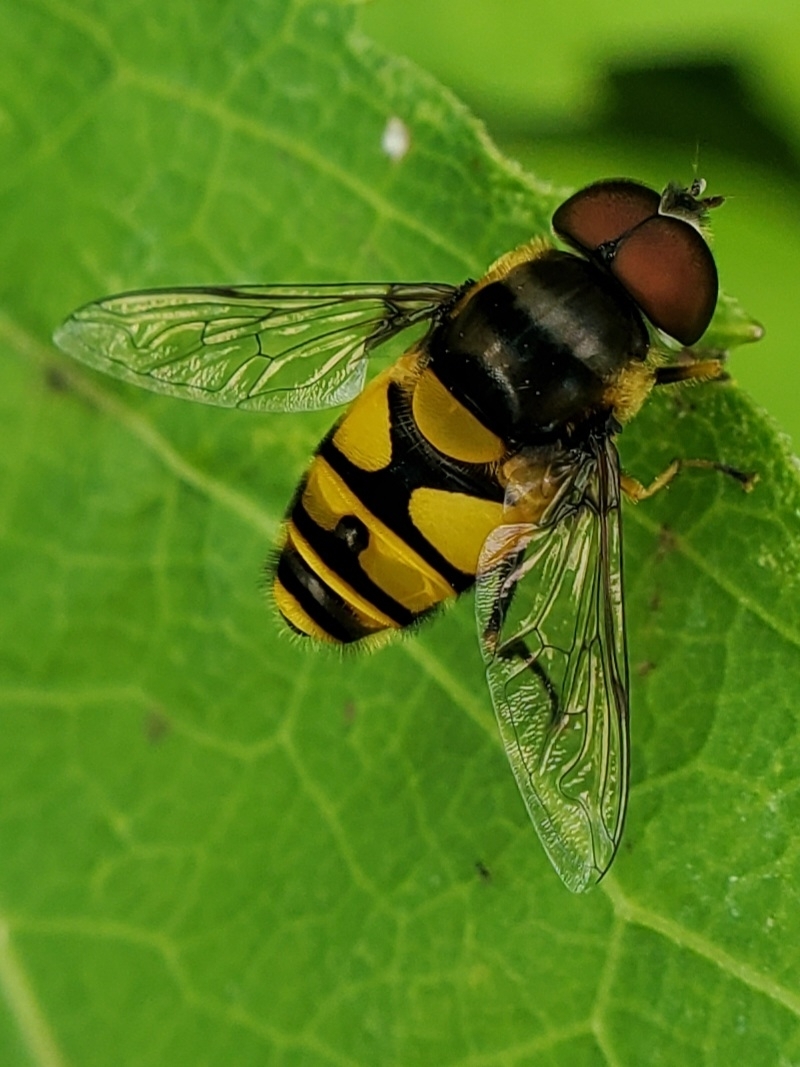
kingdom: Animalia
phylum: Arthropoda
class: Insecta
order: Diptera
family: Syrphidae
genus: Eristalis
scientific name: Eristalis transversa
